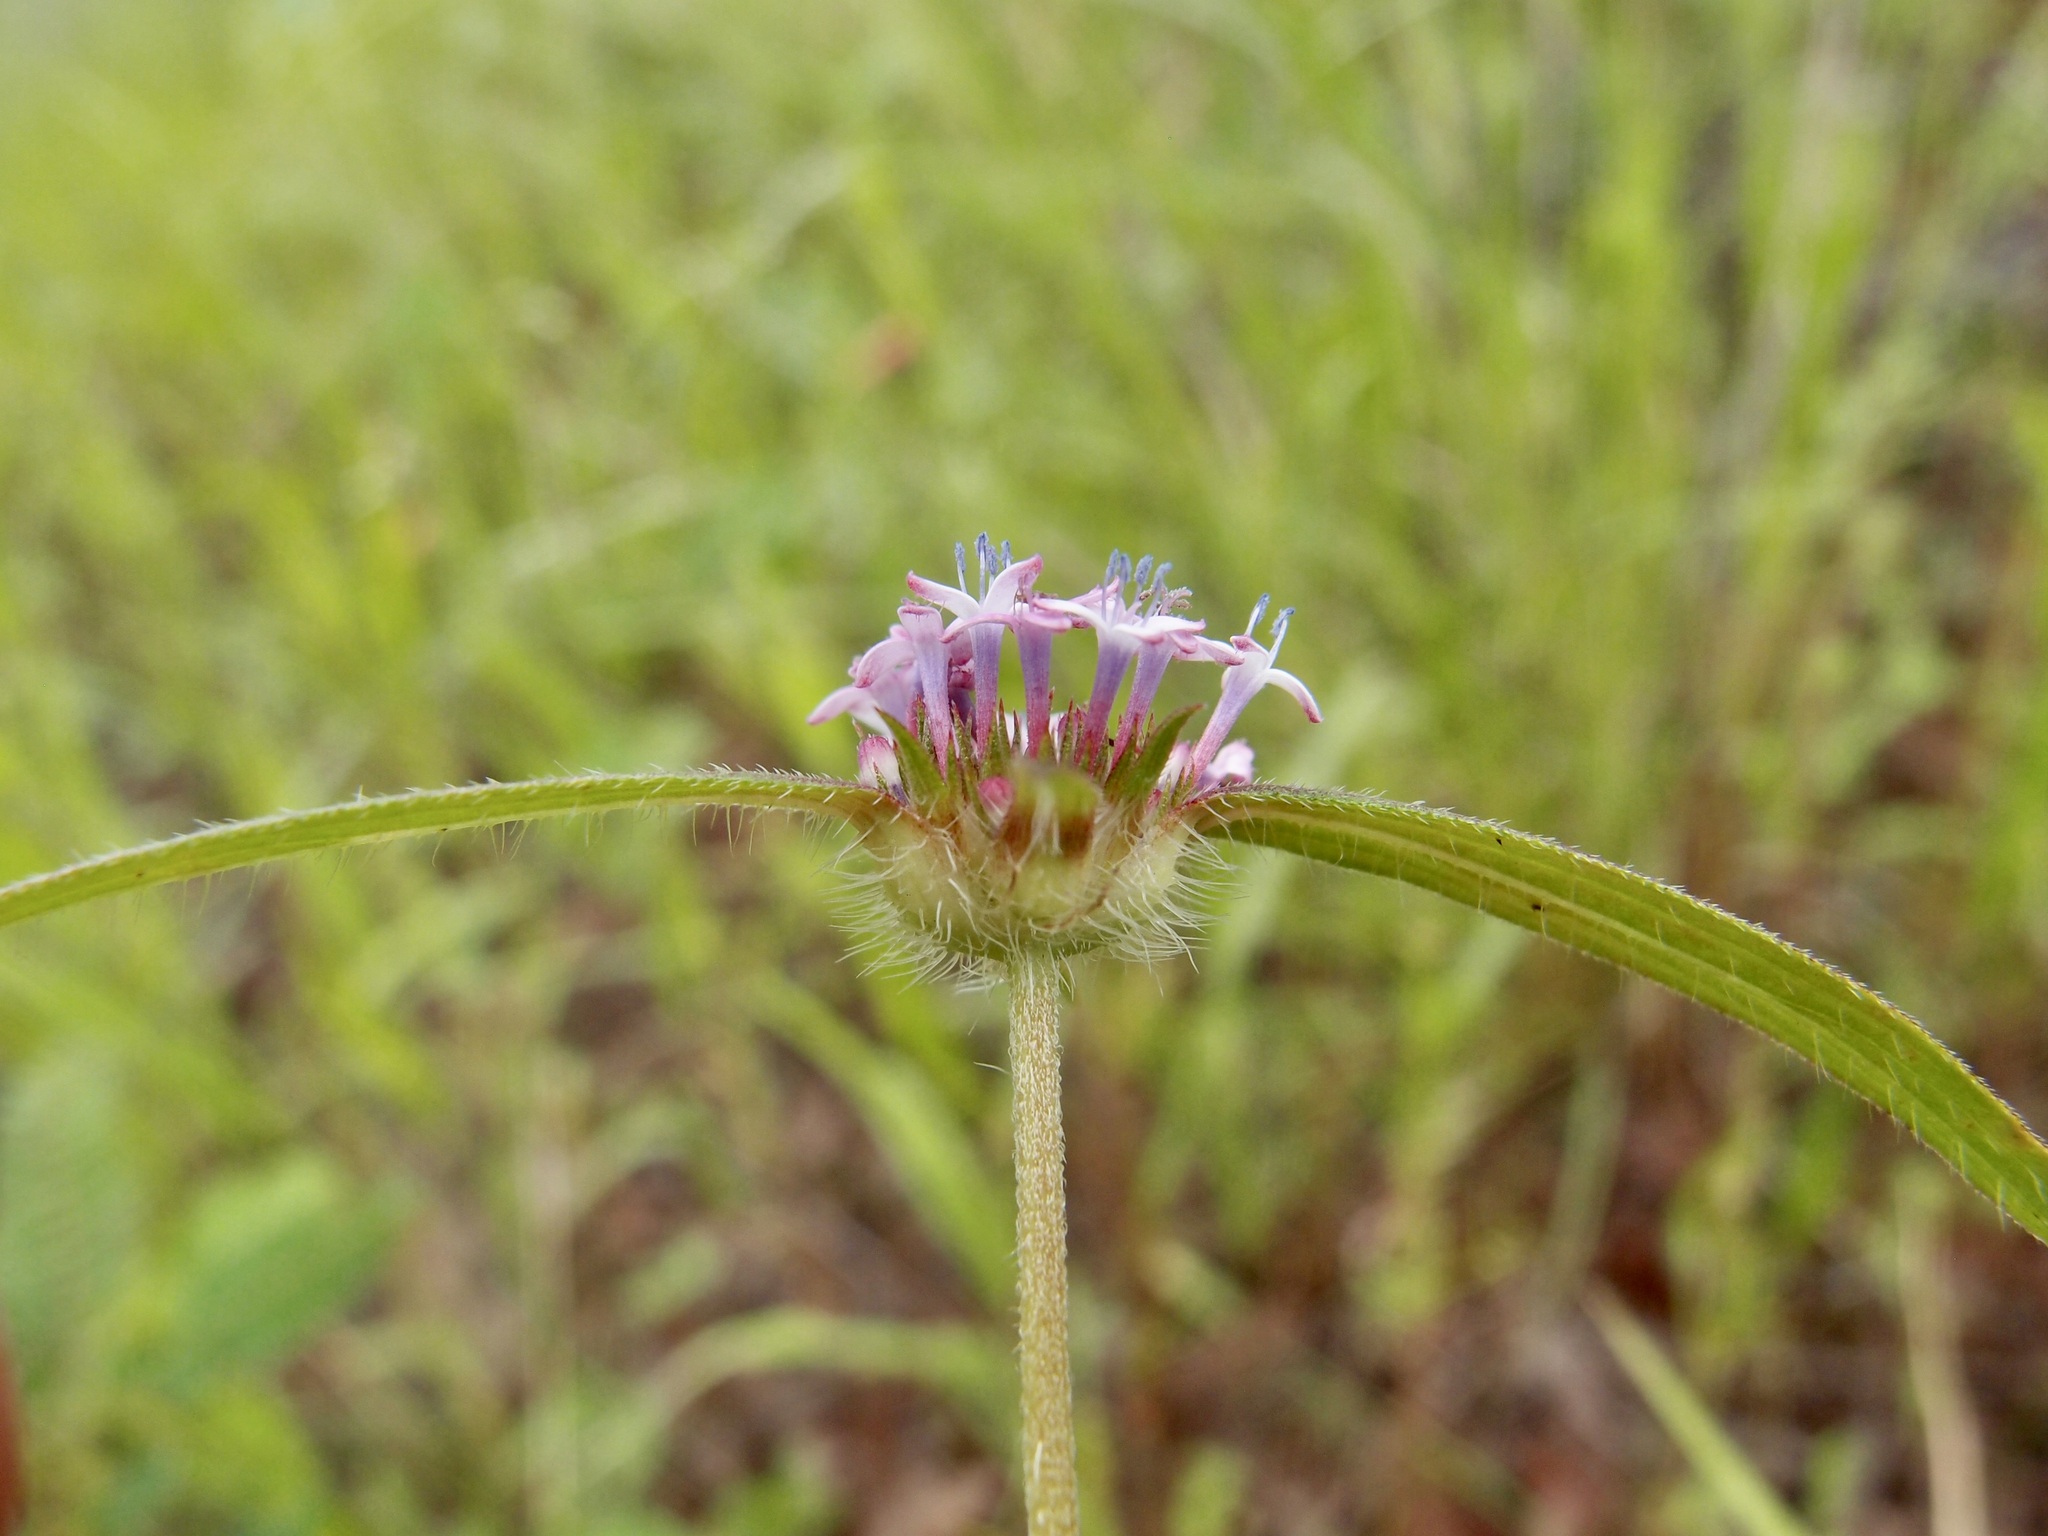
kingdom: Plantae
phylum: Tracheophyta
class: Magnoliopsida
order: Gentianales
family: Rubiaceae
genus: Crusea
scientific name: Crusea wrightii
